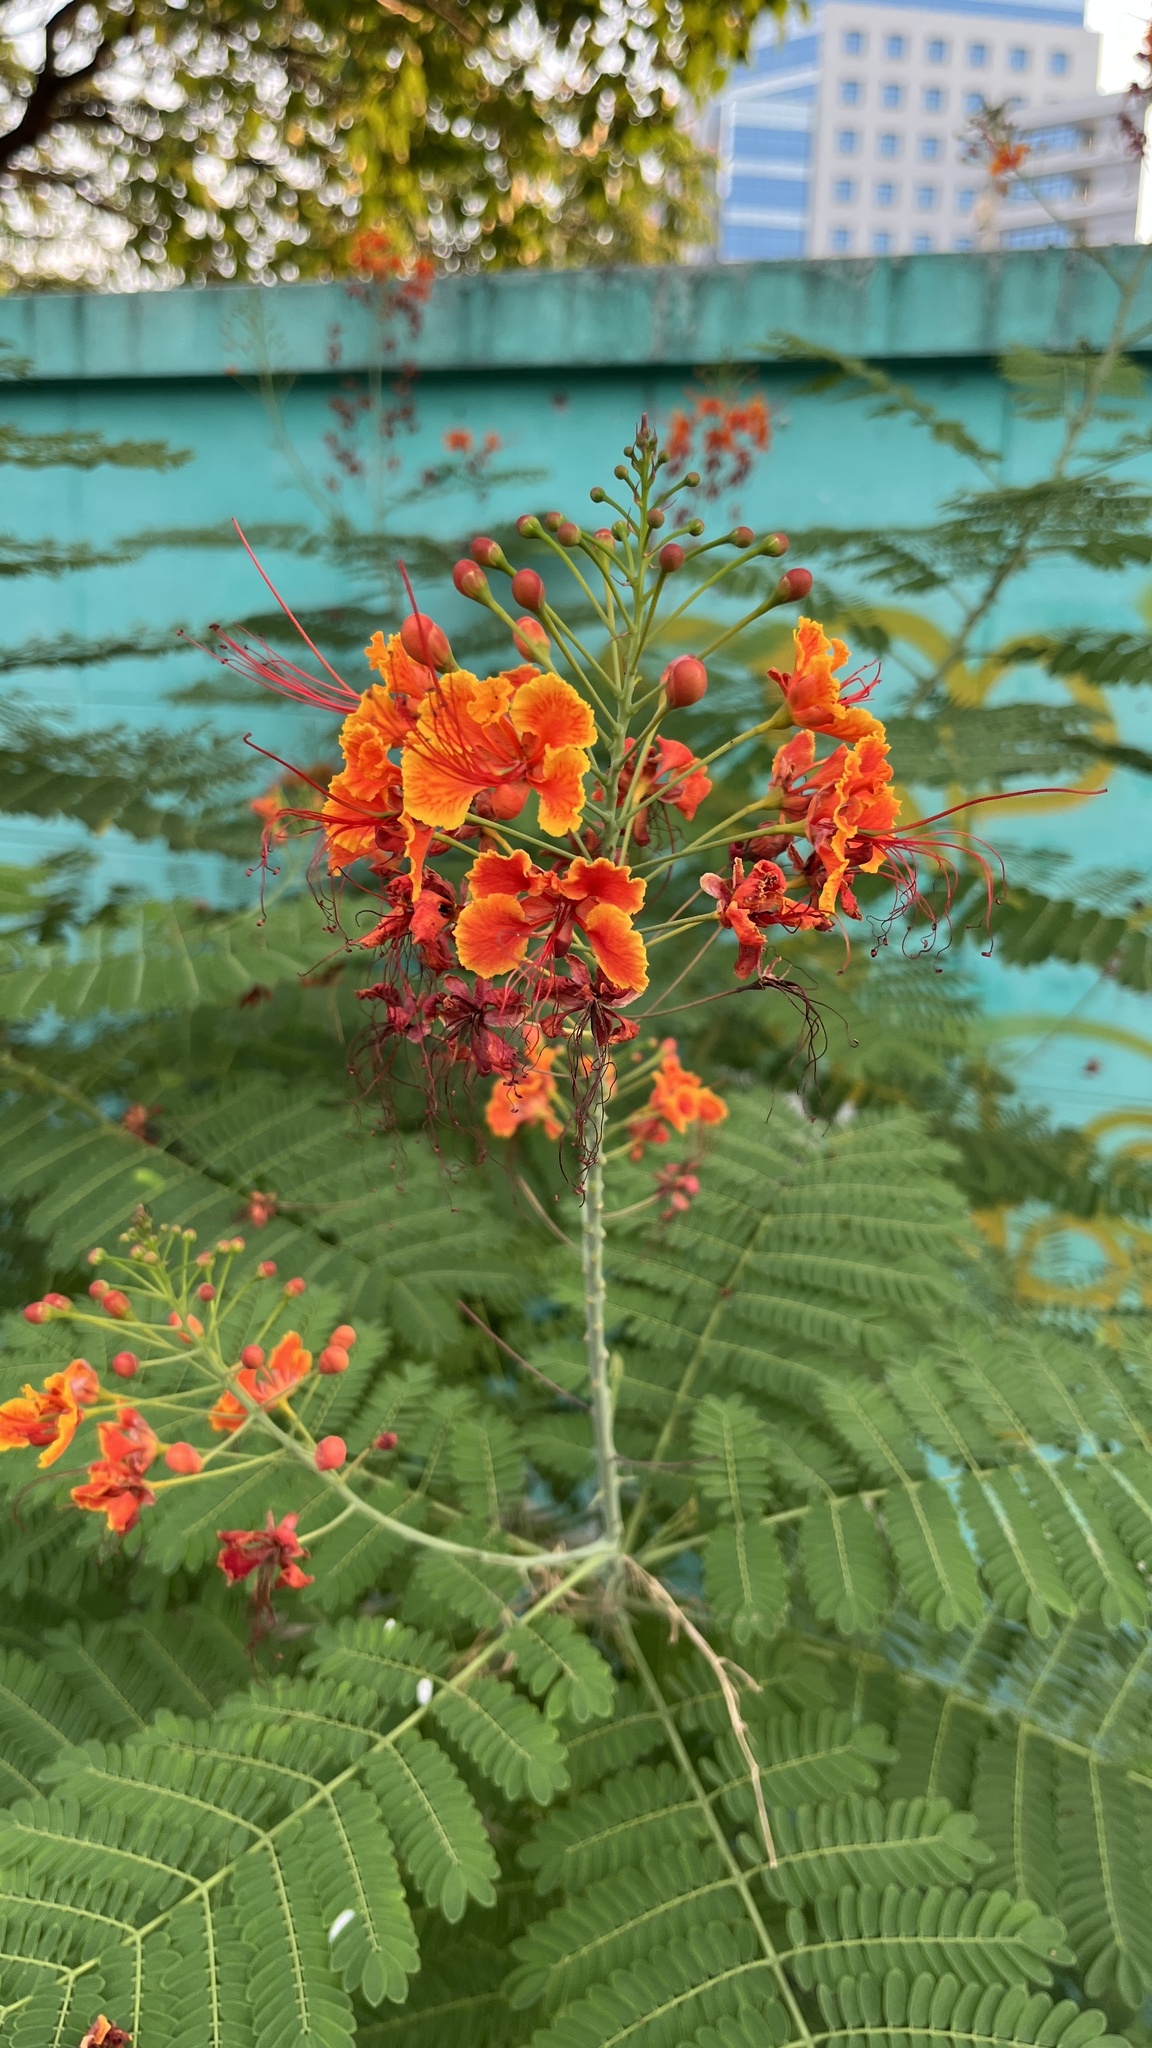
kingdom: Plantae
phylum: Tracheophyta
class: Magnoliopsida
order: Fabales
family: Fabaceae
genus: Caesalpinia
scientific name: Caesalpinia pulcherrima
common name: Pride-of-barbados
